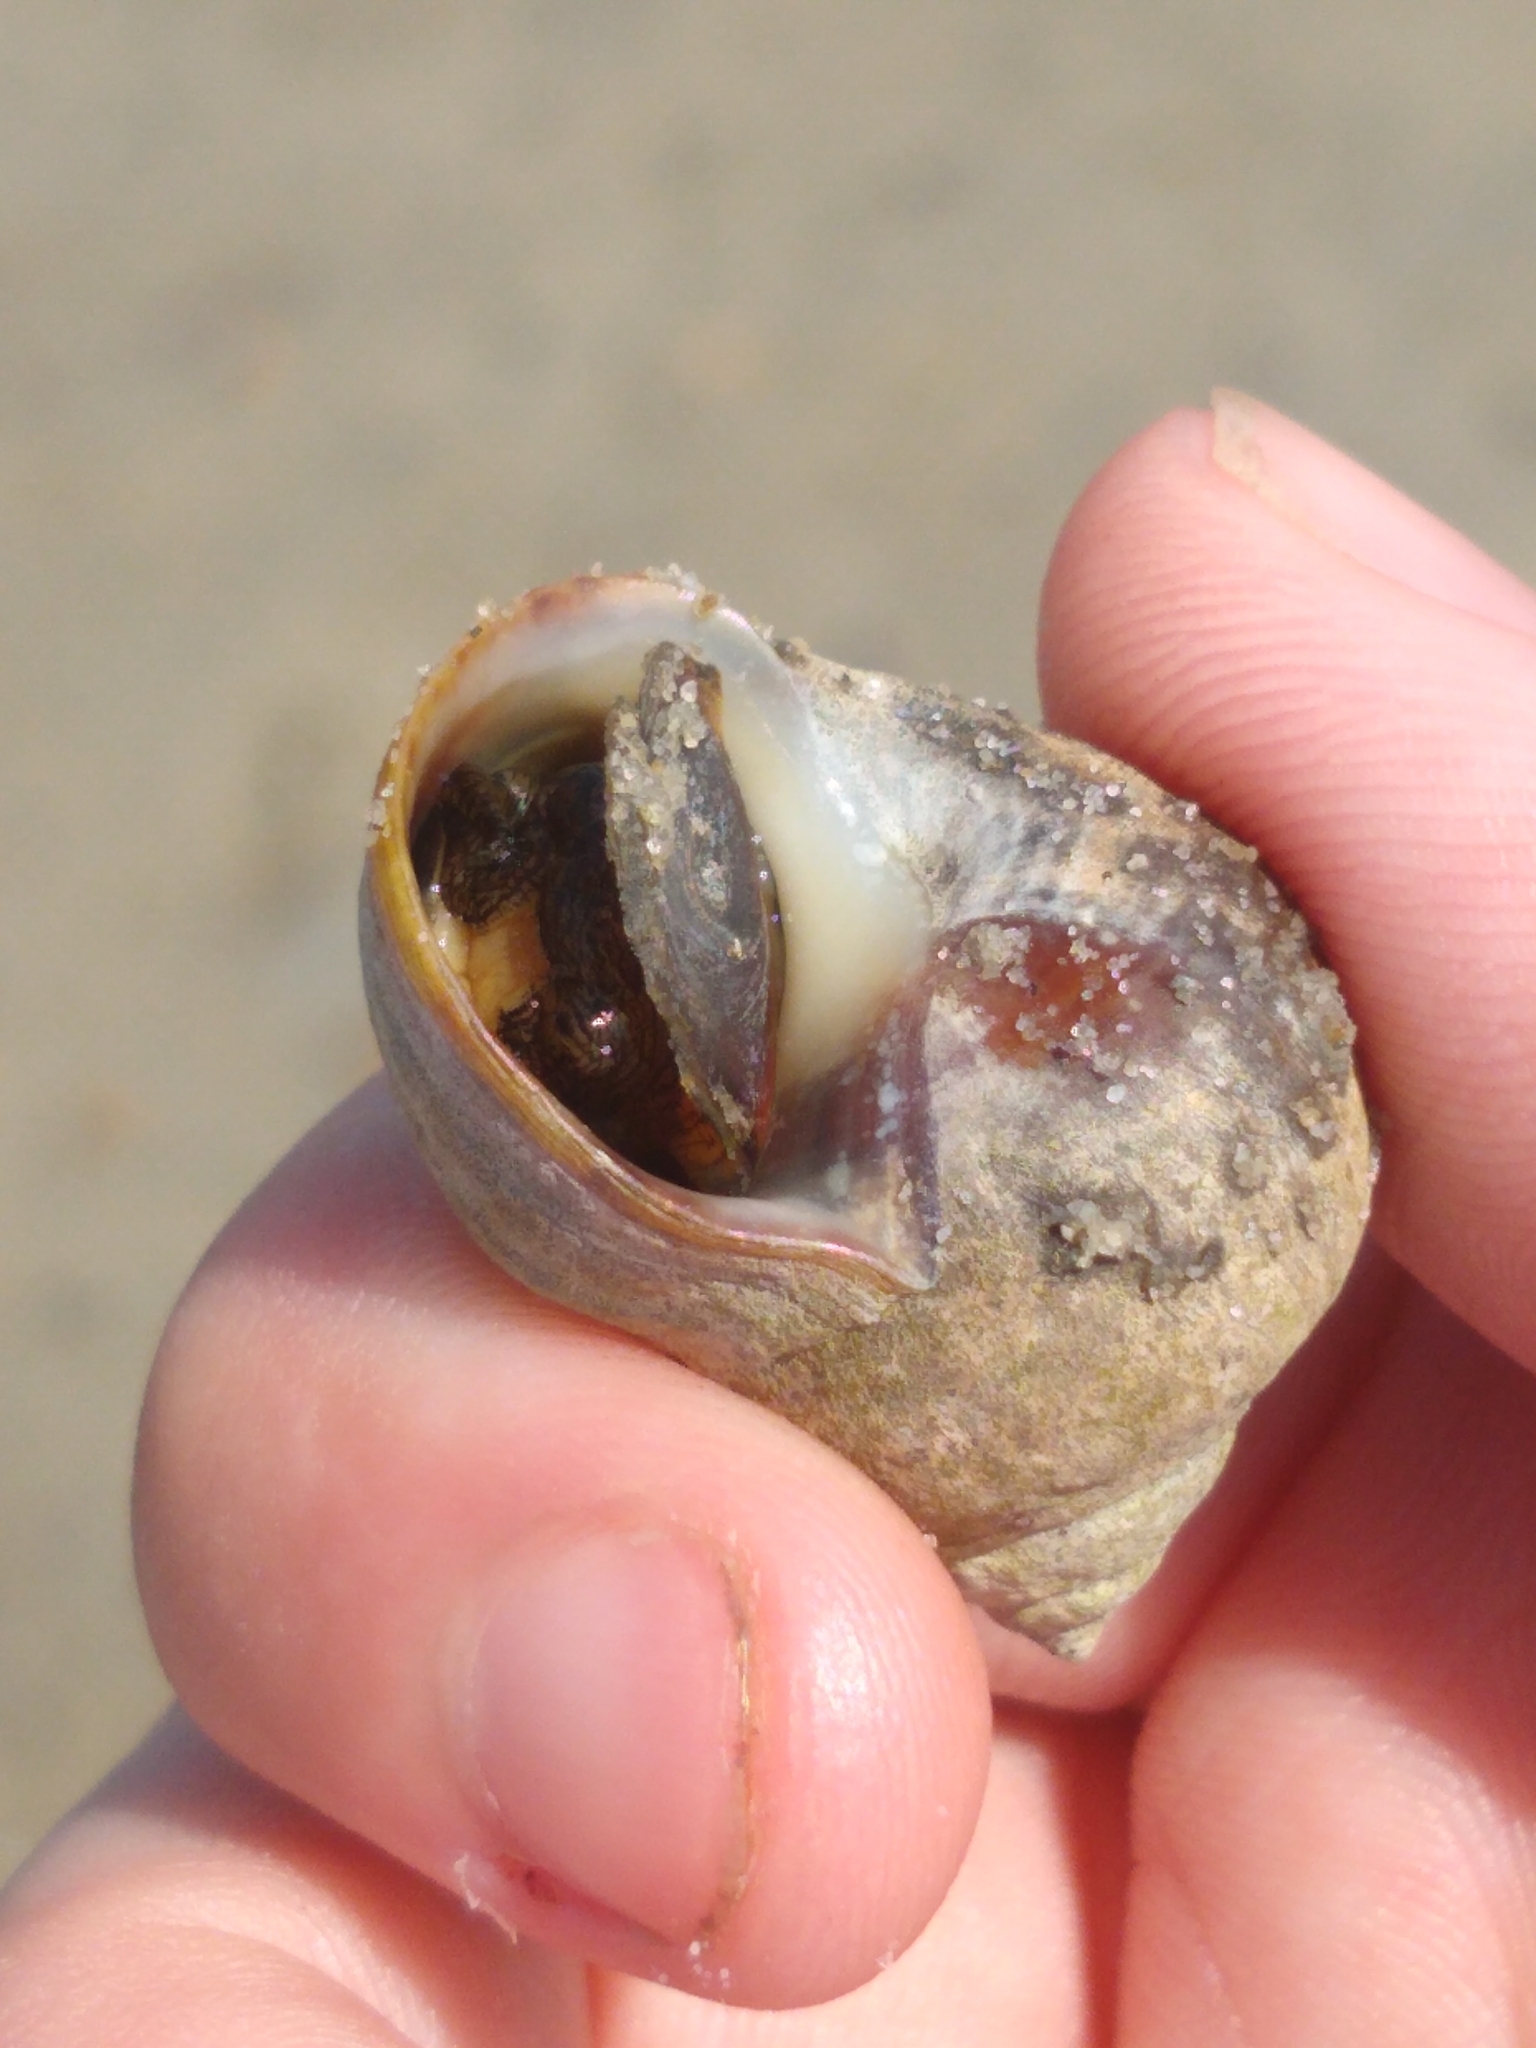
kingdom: Animalia
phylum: Mollusca
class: Gastropoda
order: Littorinimorpha
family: Littorinidae
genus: Littorina
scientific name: Littorina littorea
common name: Common periwinkle
